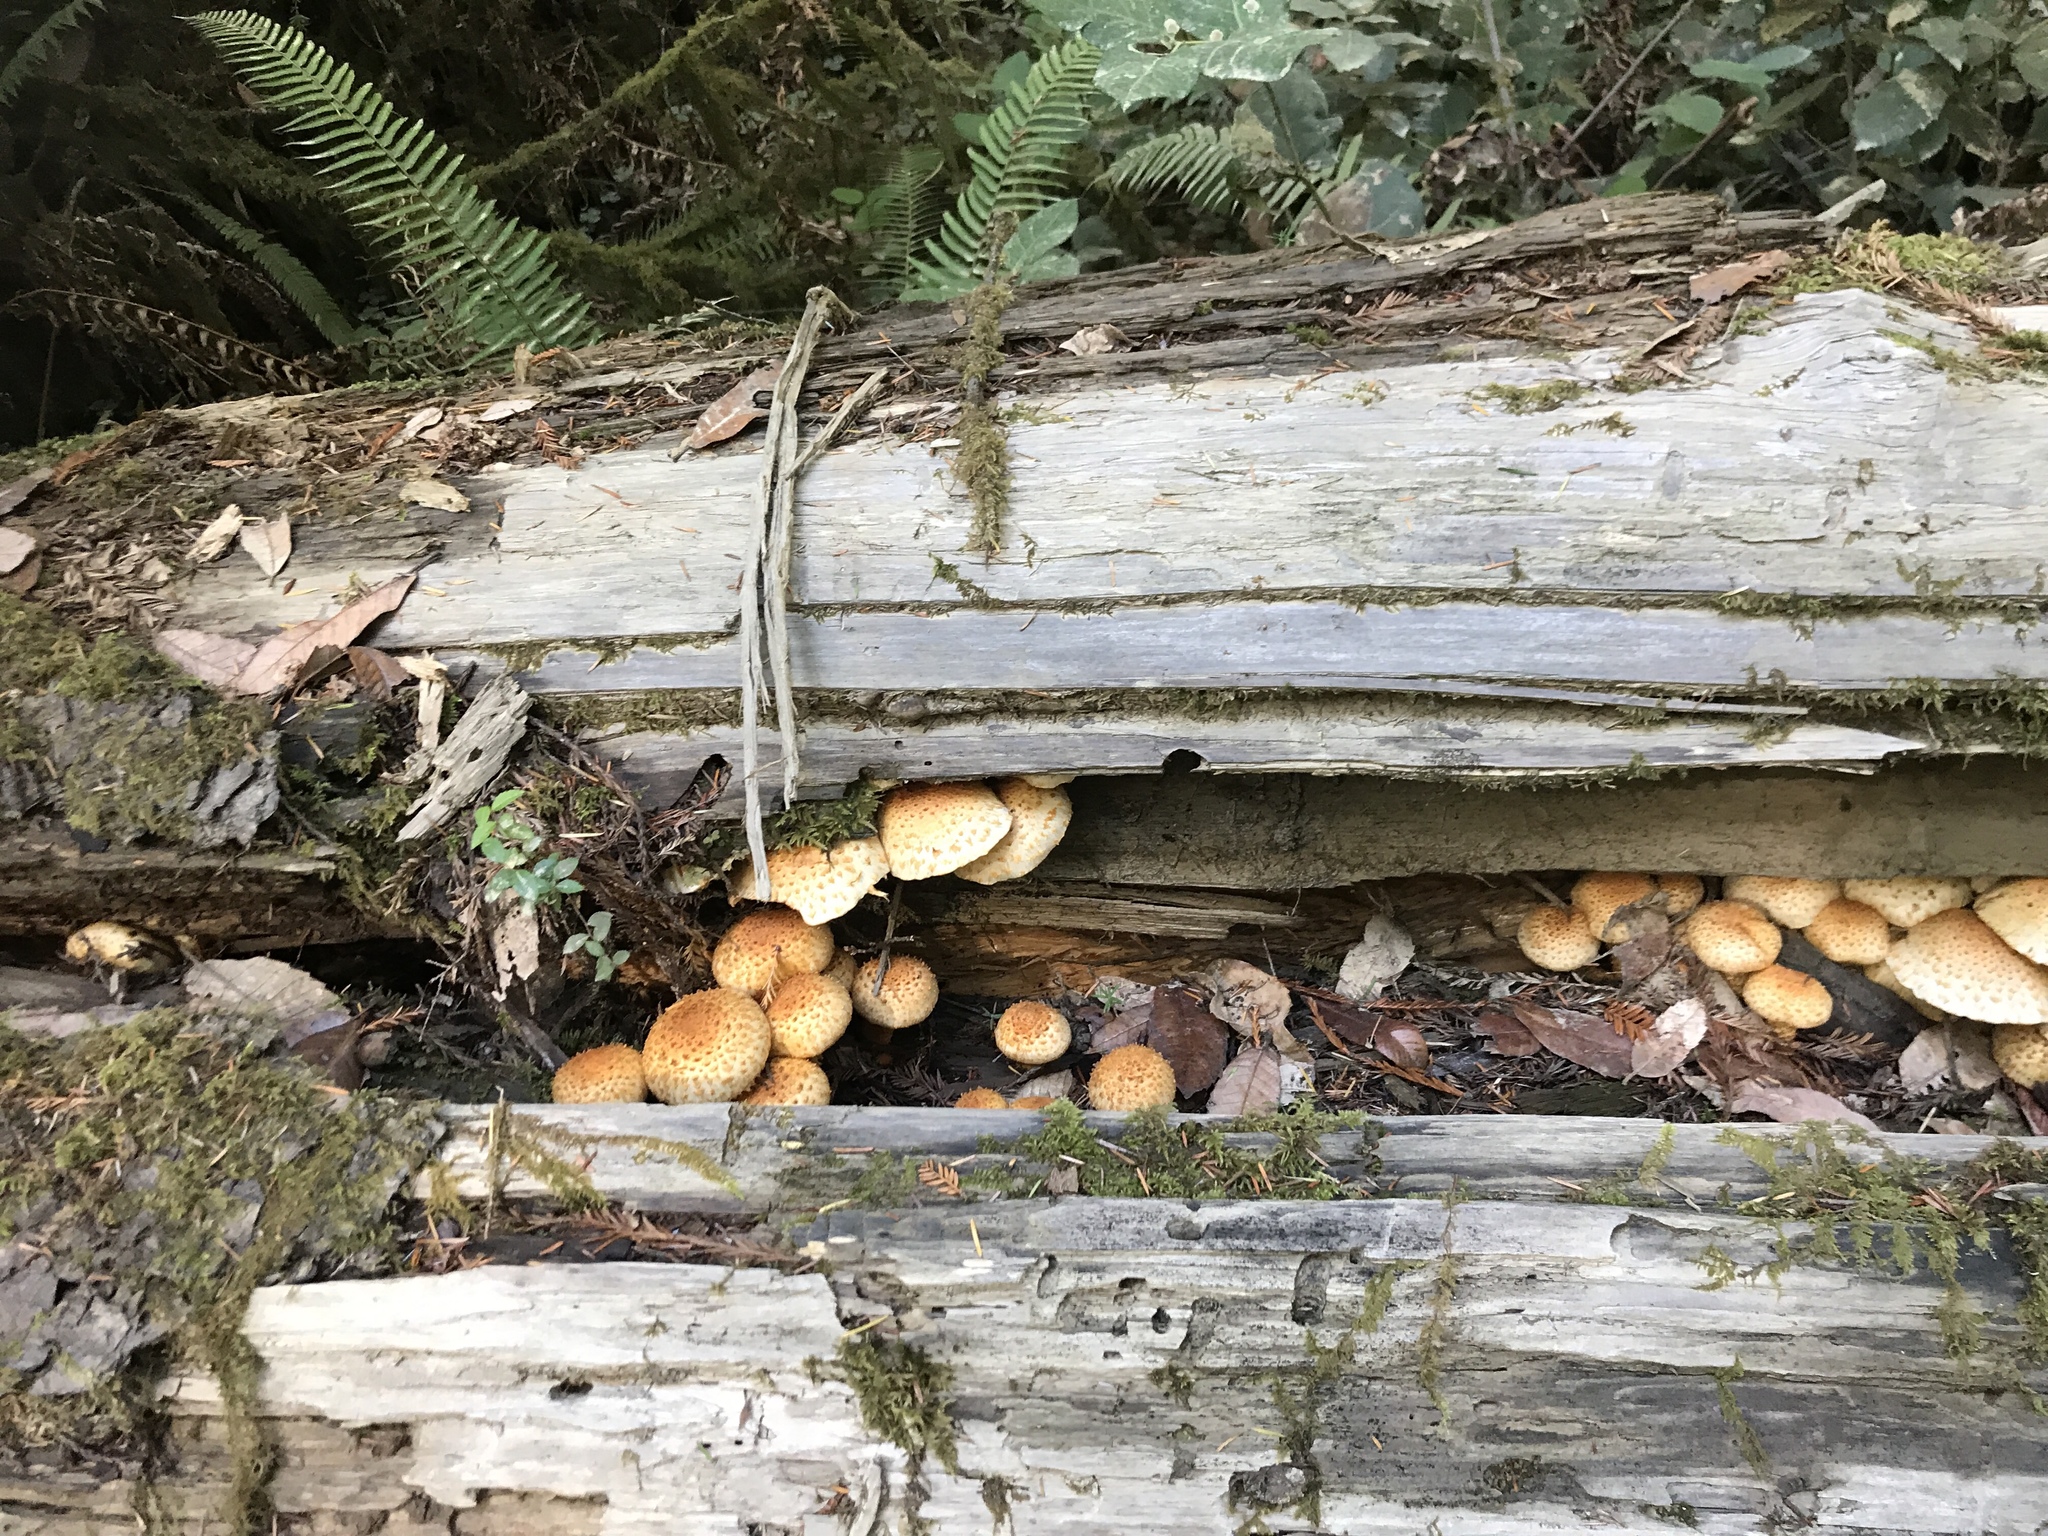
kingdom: Fungi
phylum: Basidiomycota
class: Agaricomycetes
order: Agaricales
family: Strophariaceae
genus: Pholiota
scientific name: Pholiota aurivella
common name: Golden scalycap
